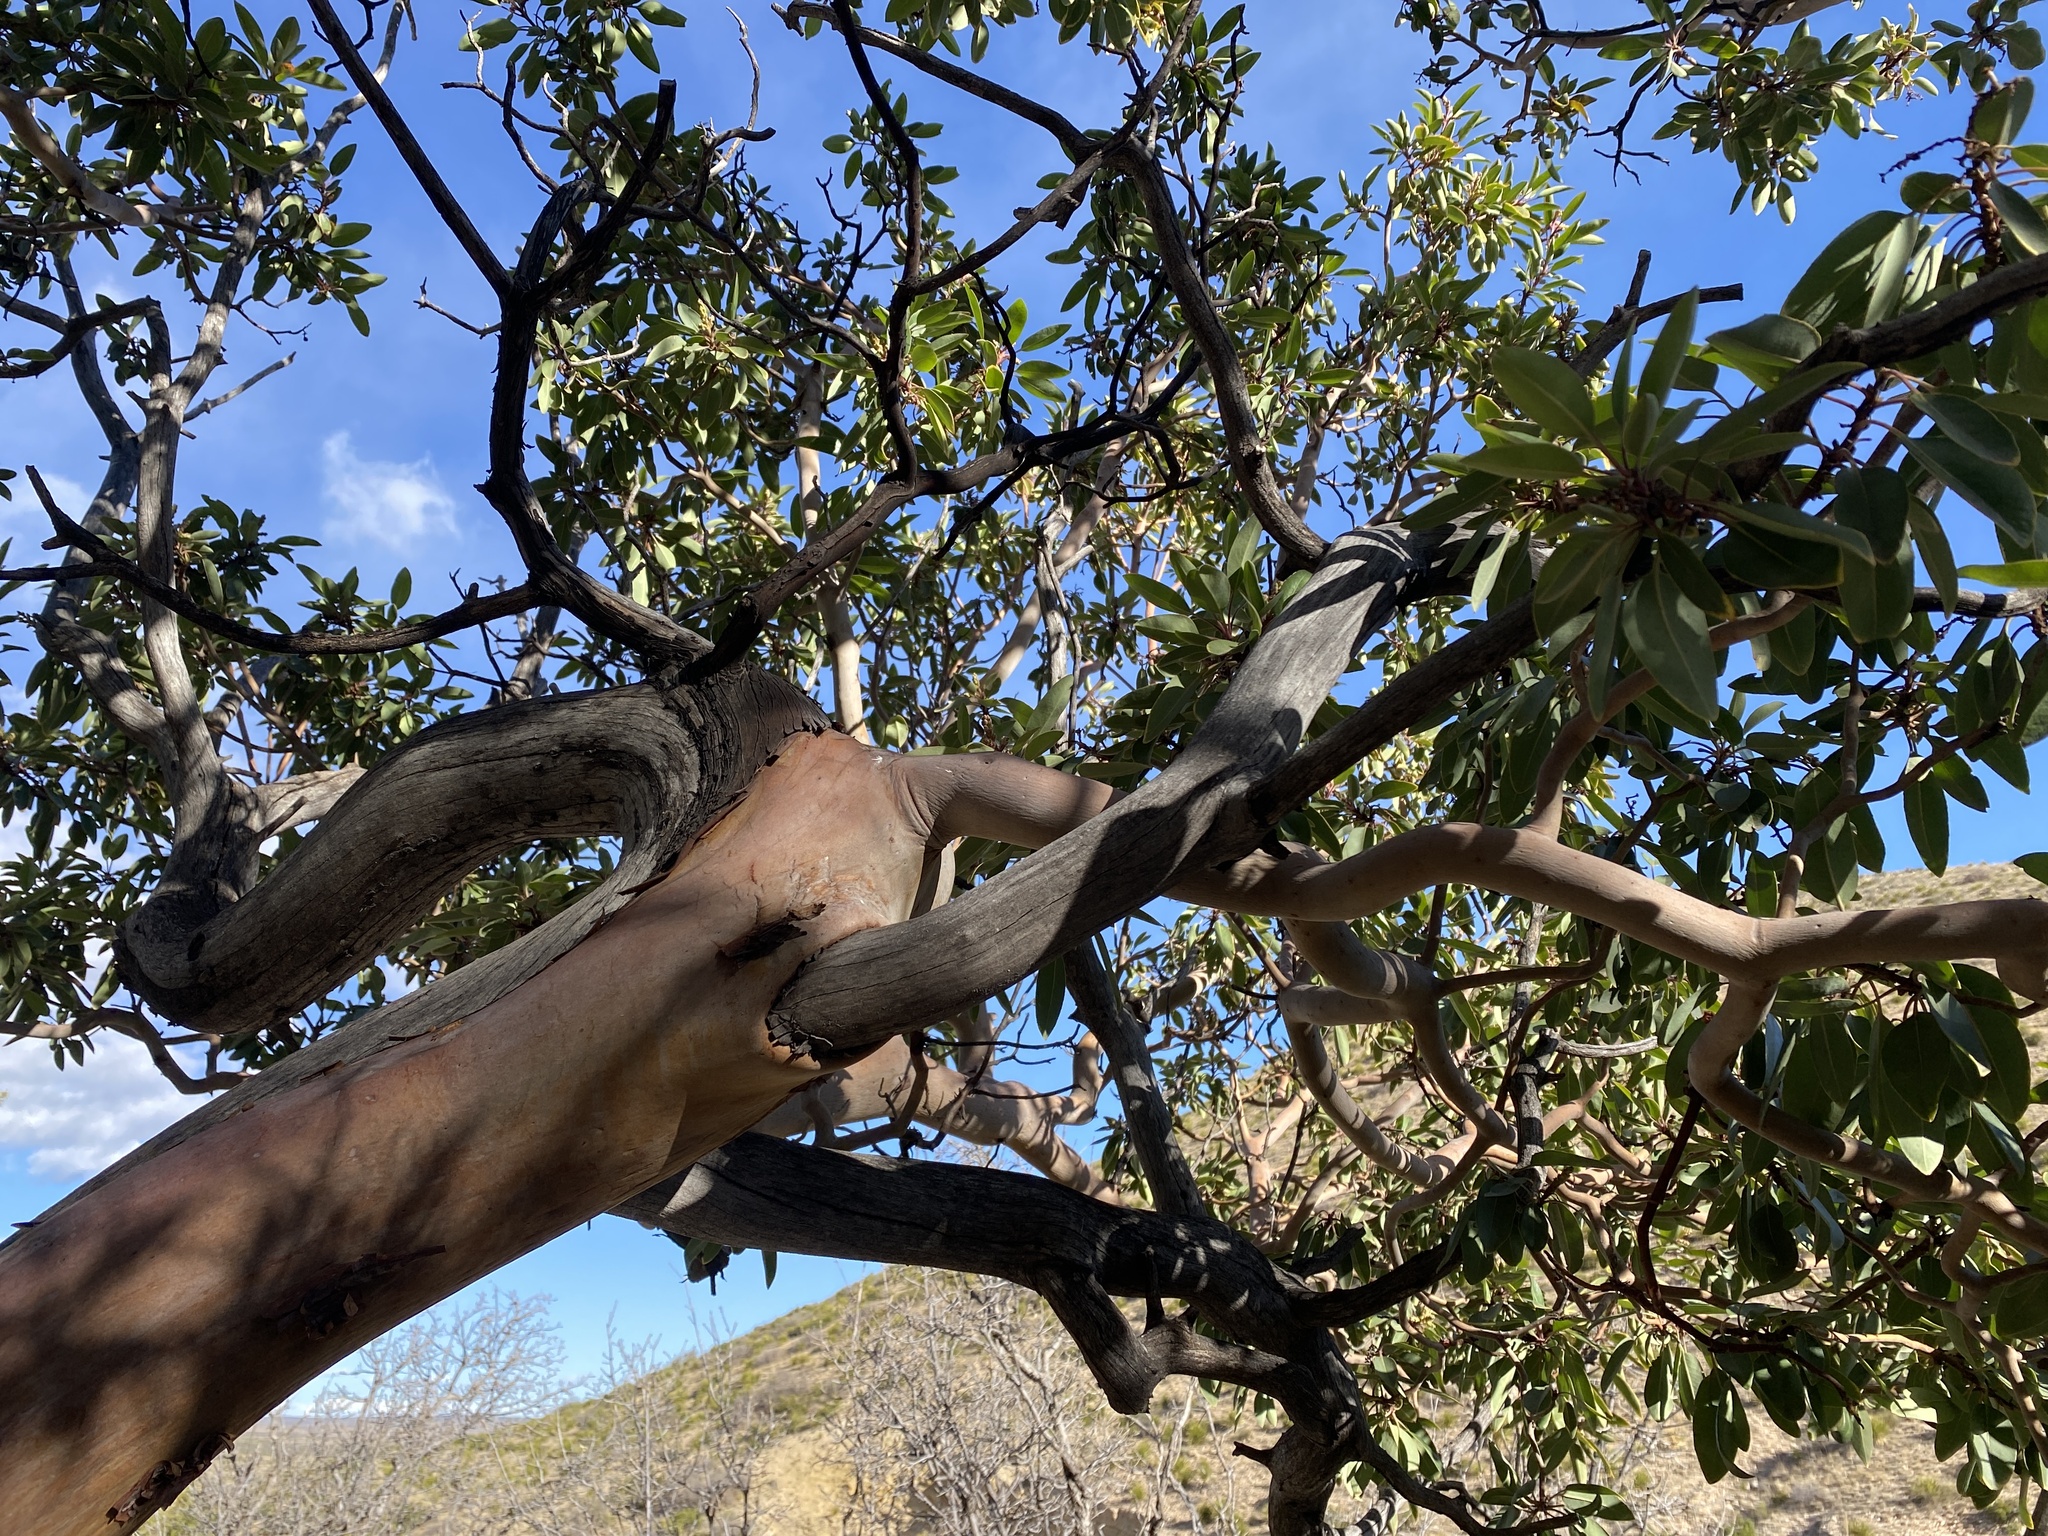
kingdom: Plantae
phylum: Tracheophyta
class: Magnoliopsida
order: Ericales
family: Ericaceae
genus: Arbutus
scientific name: Arbutus xalapensis
